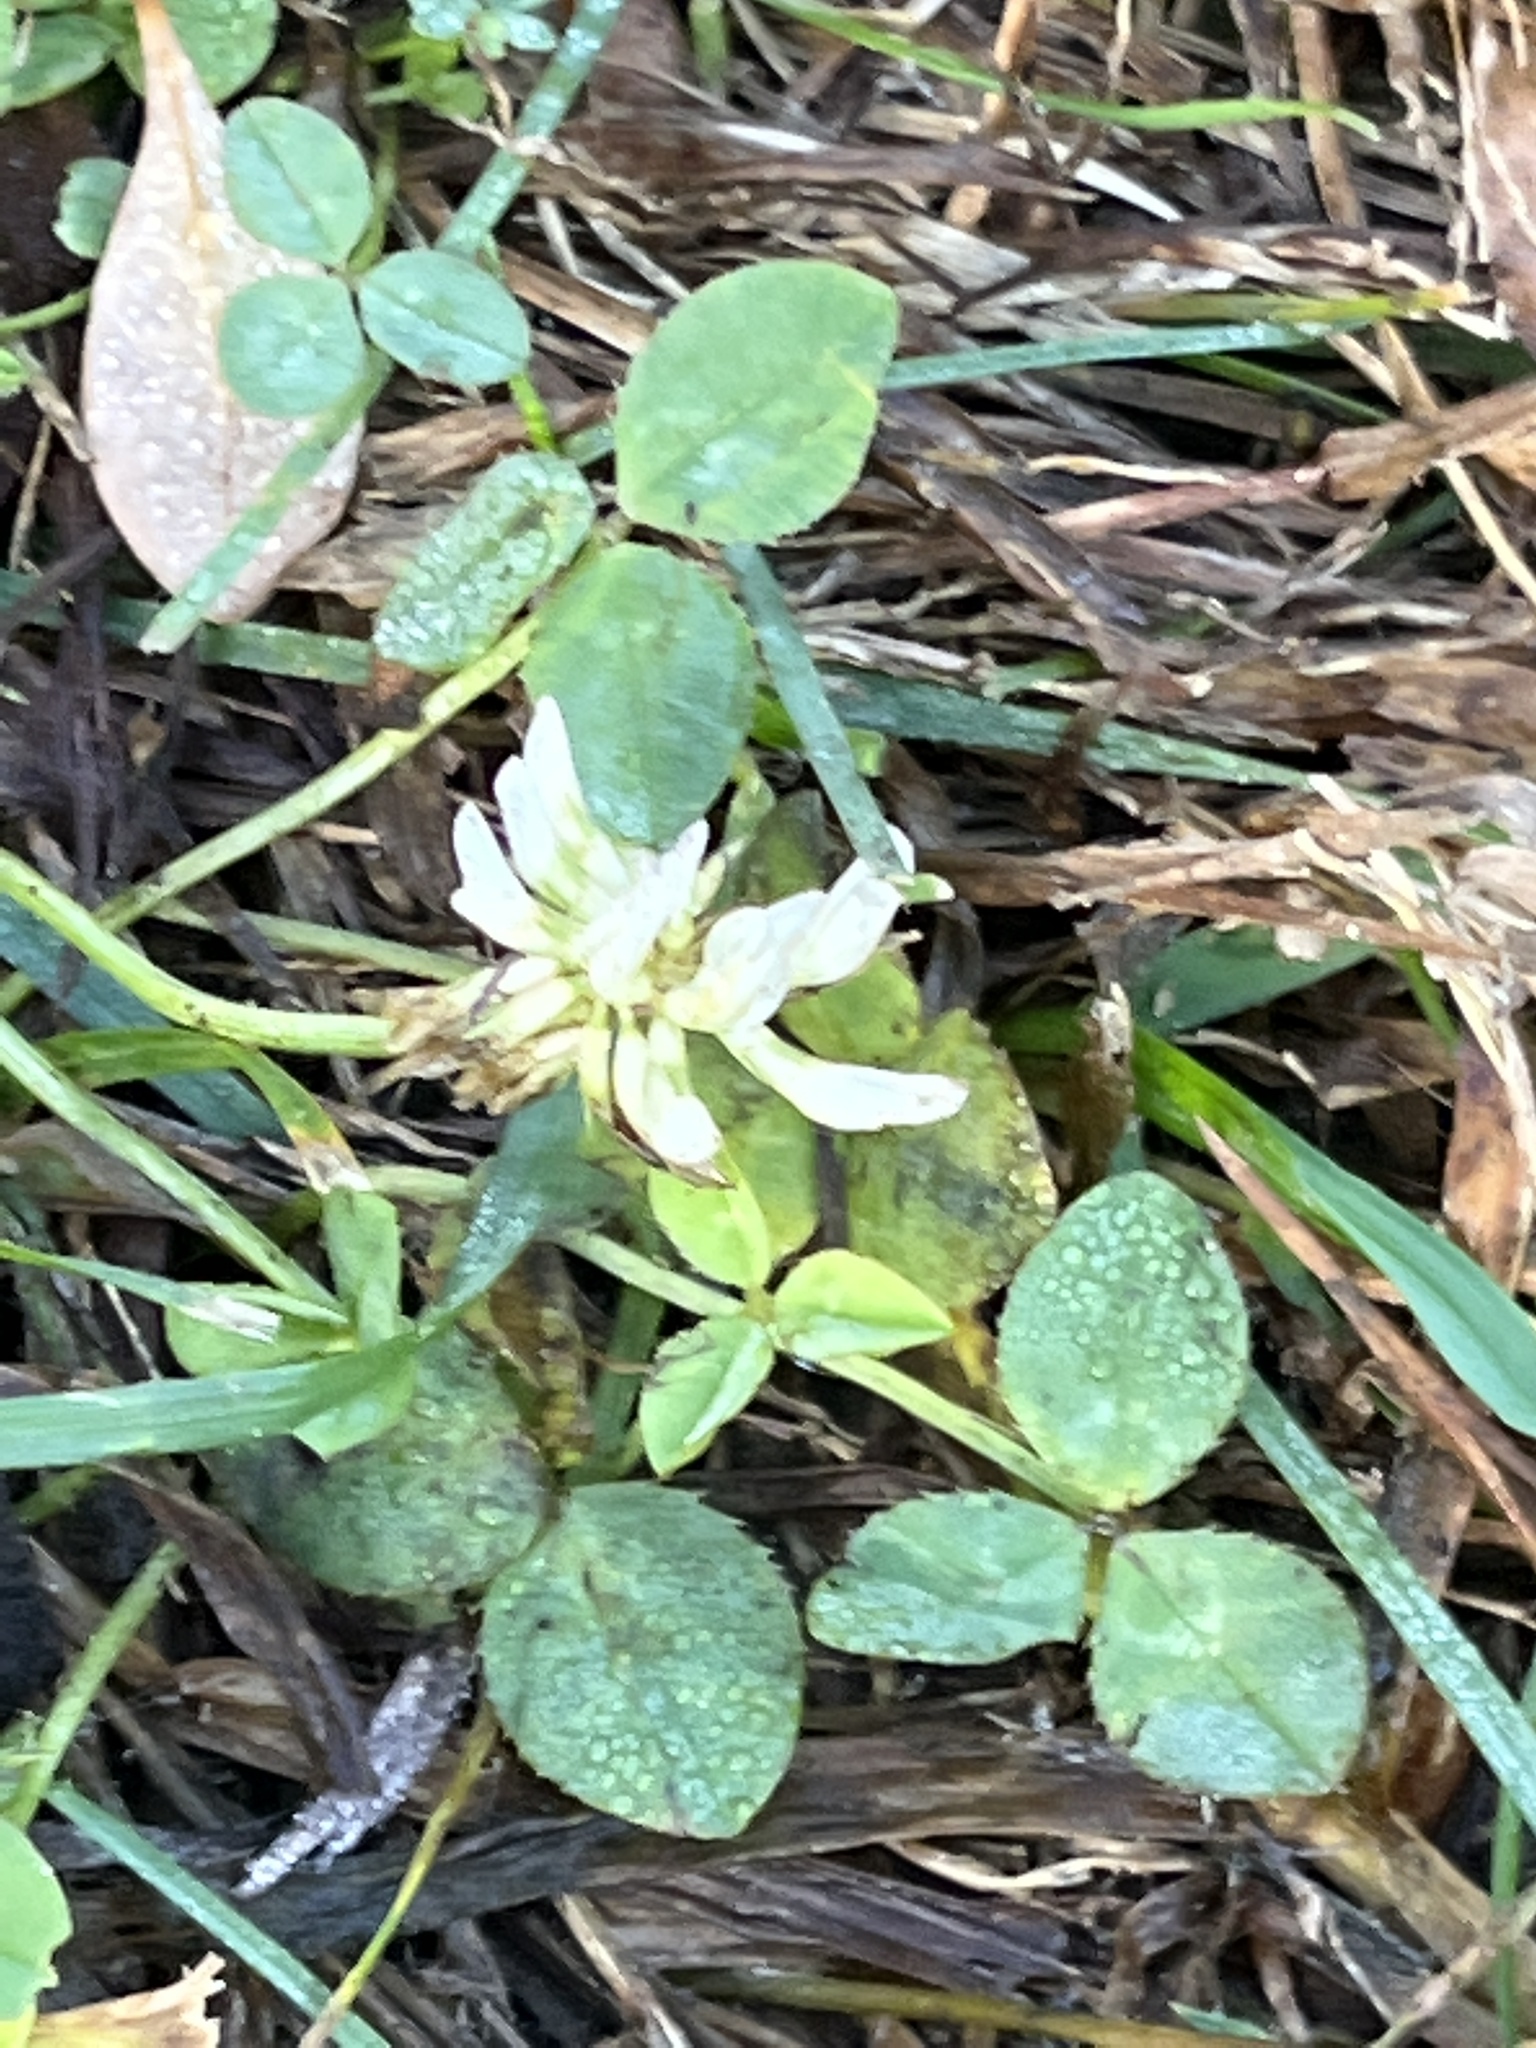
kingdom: Plantae
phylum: Tracheophyta
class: Magnoliopsida
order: Fabales
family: Fabaceae
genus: Trifolium
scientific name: Trifolium repens
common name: White clover
